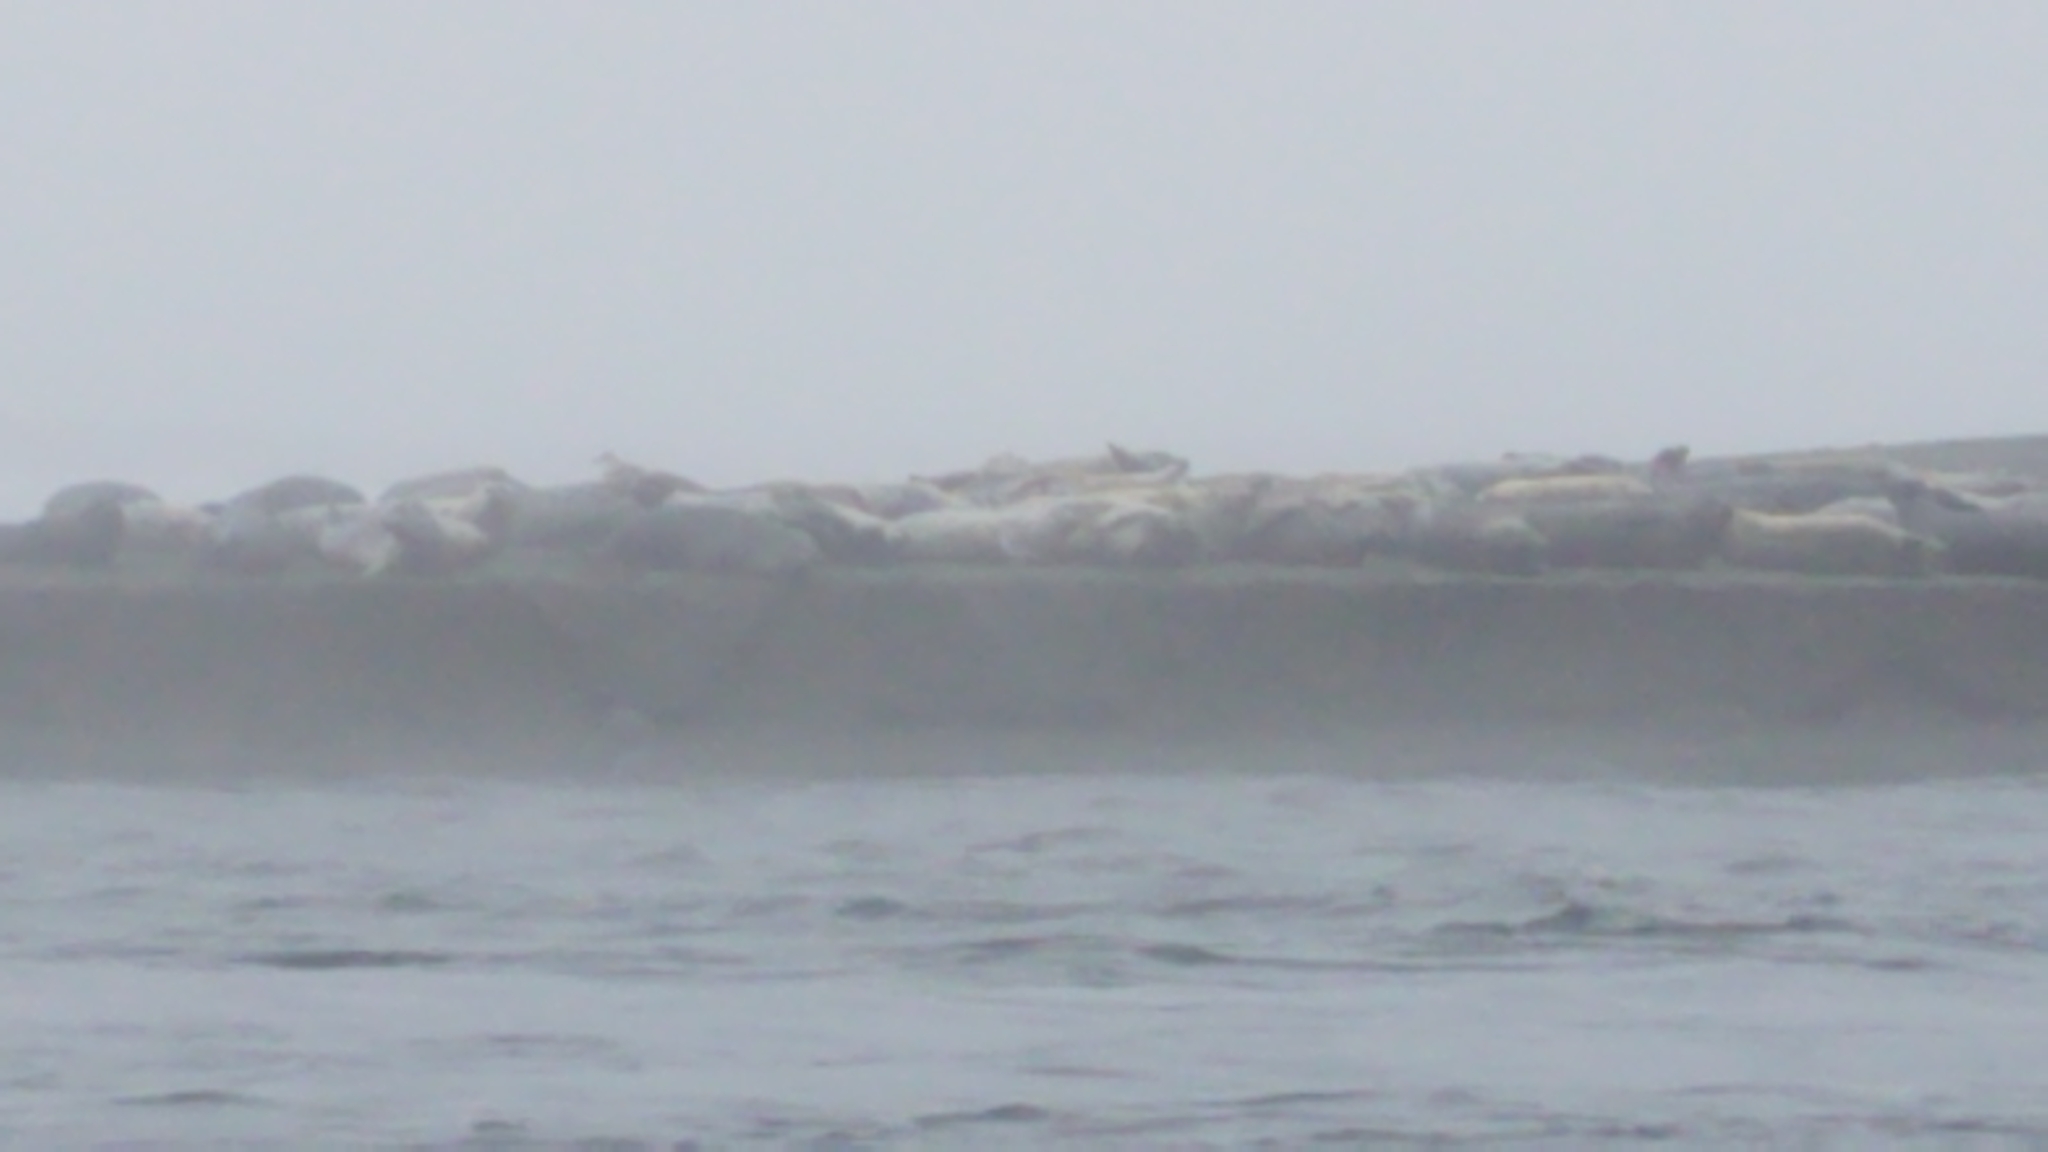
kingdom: Animalia
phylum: Chordata
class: Mammalia
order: Carnivora
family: Phocidae
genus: Phoca
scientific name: Phoca vitulina
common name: Harbor seal
